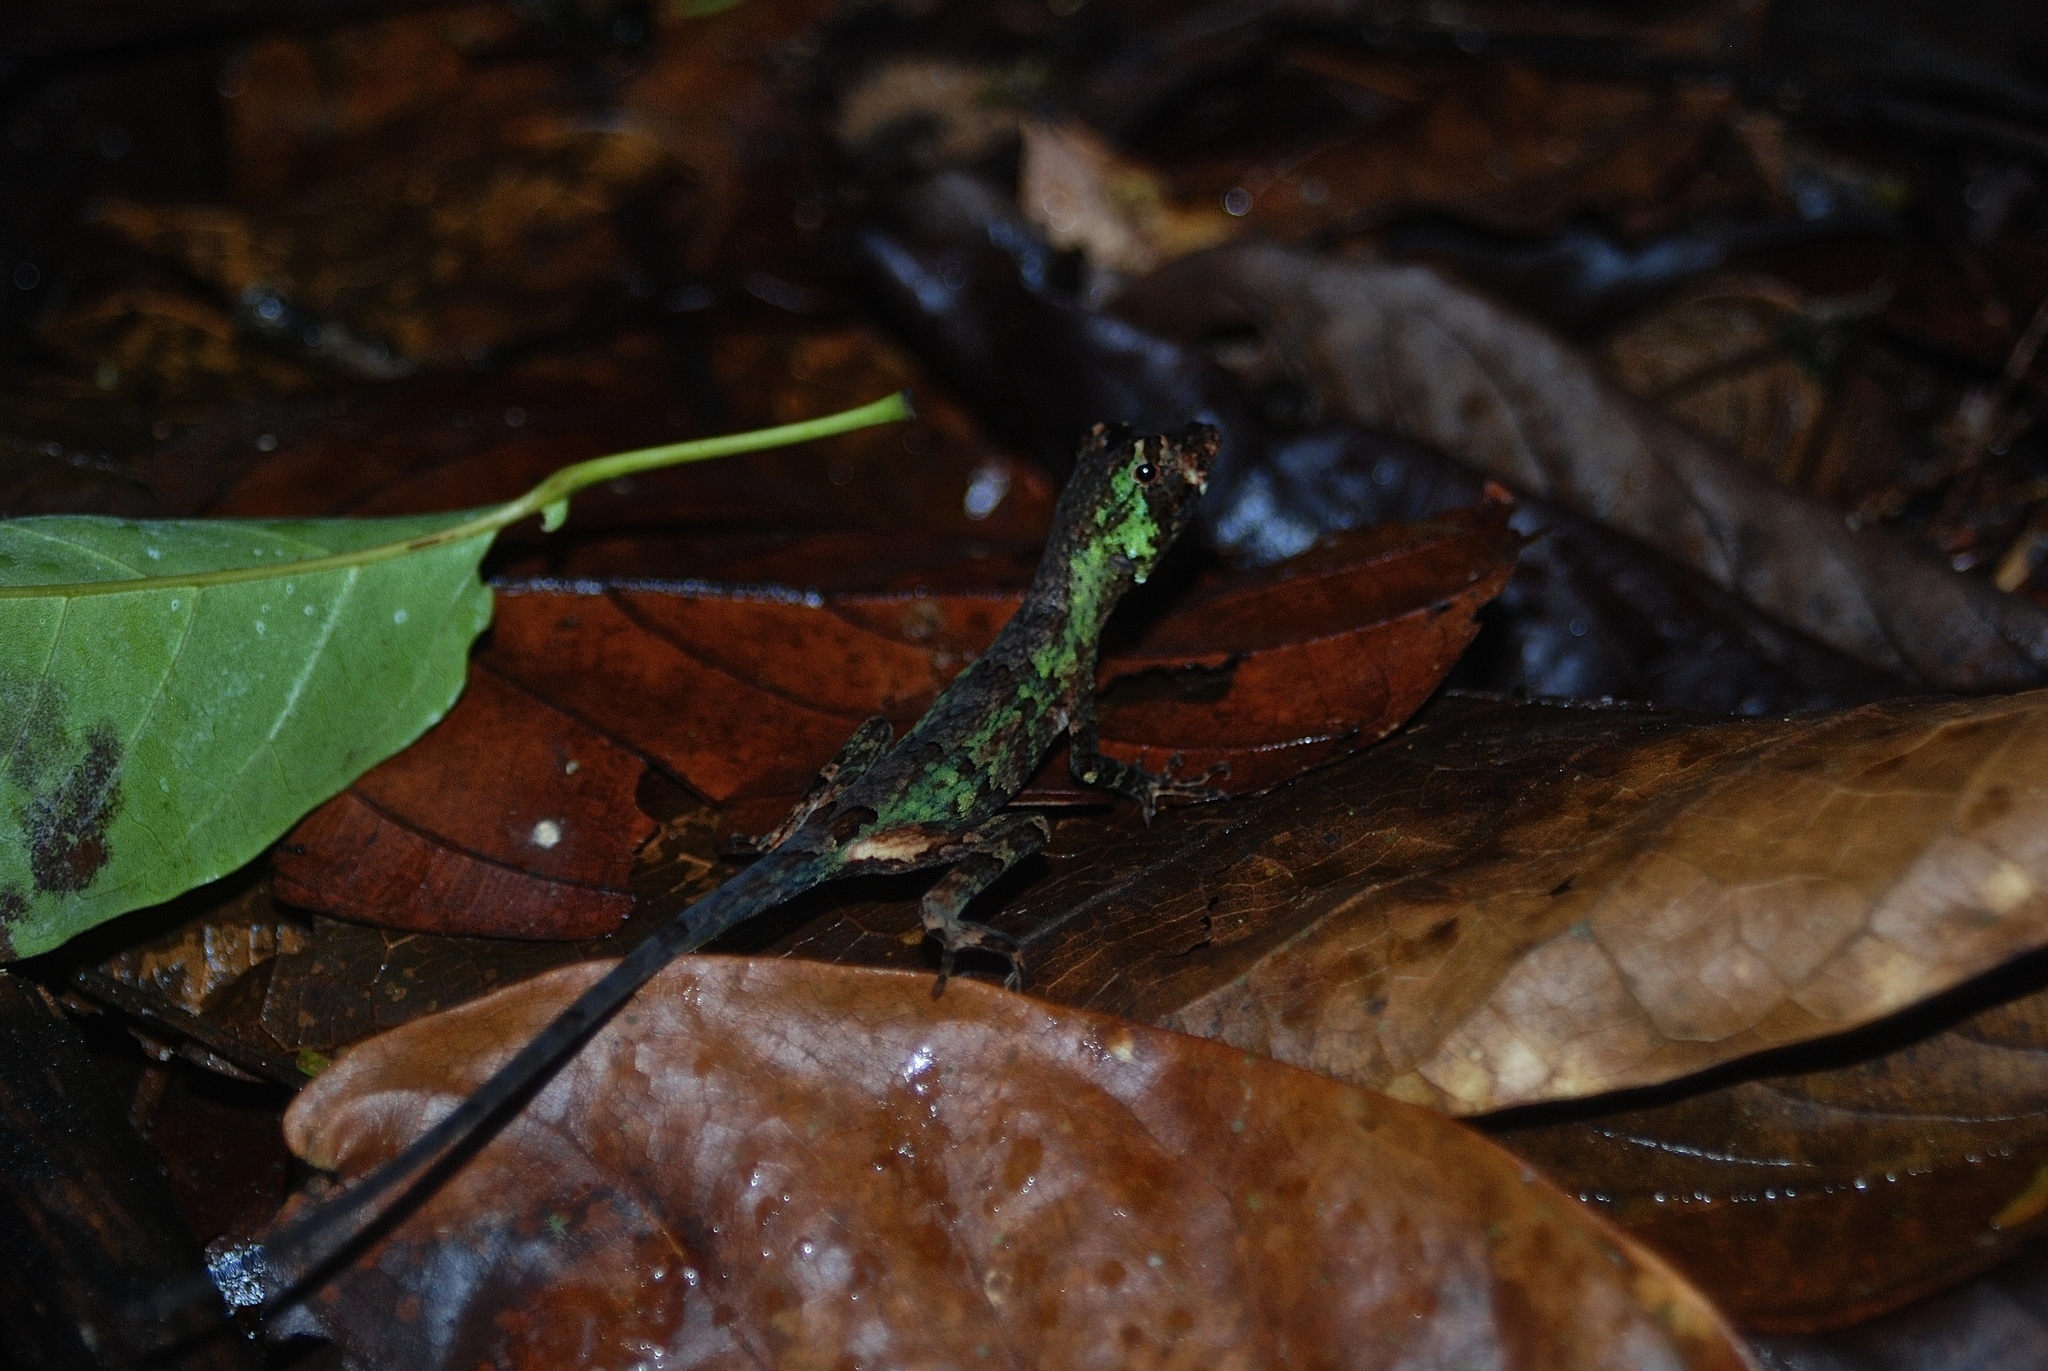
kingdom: Animalia
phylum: Chordata
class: Squamata
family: Dactyloidae
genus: Anolis
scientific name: Anolis capito
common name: Bighead anole
